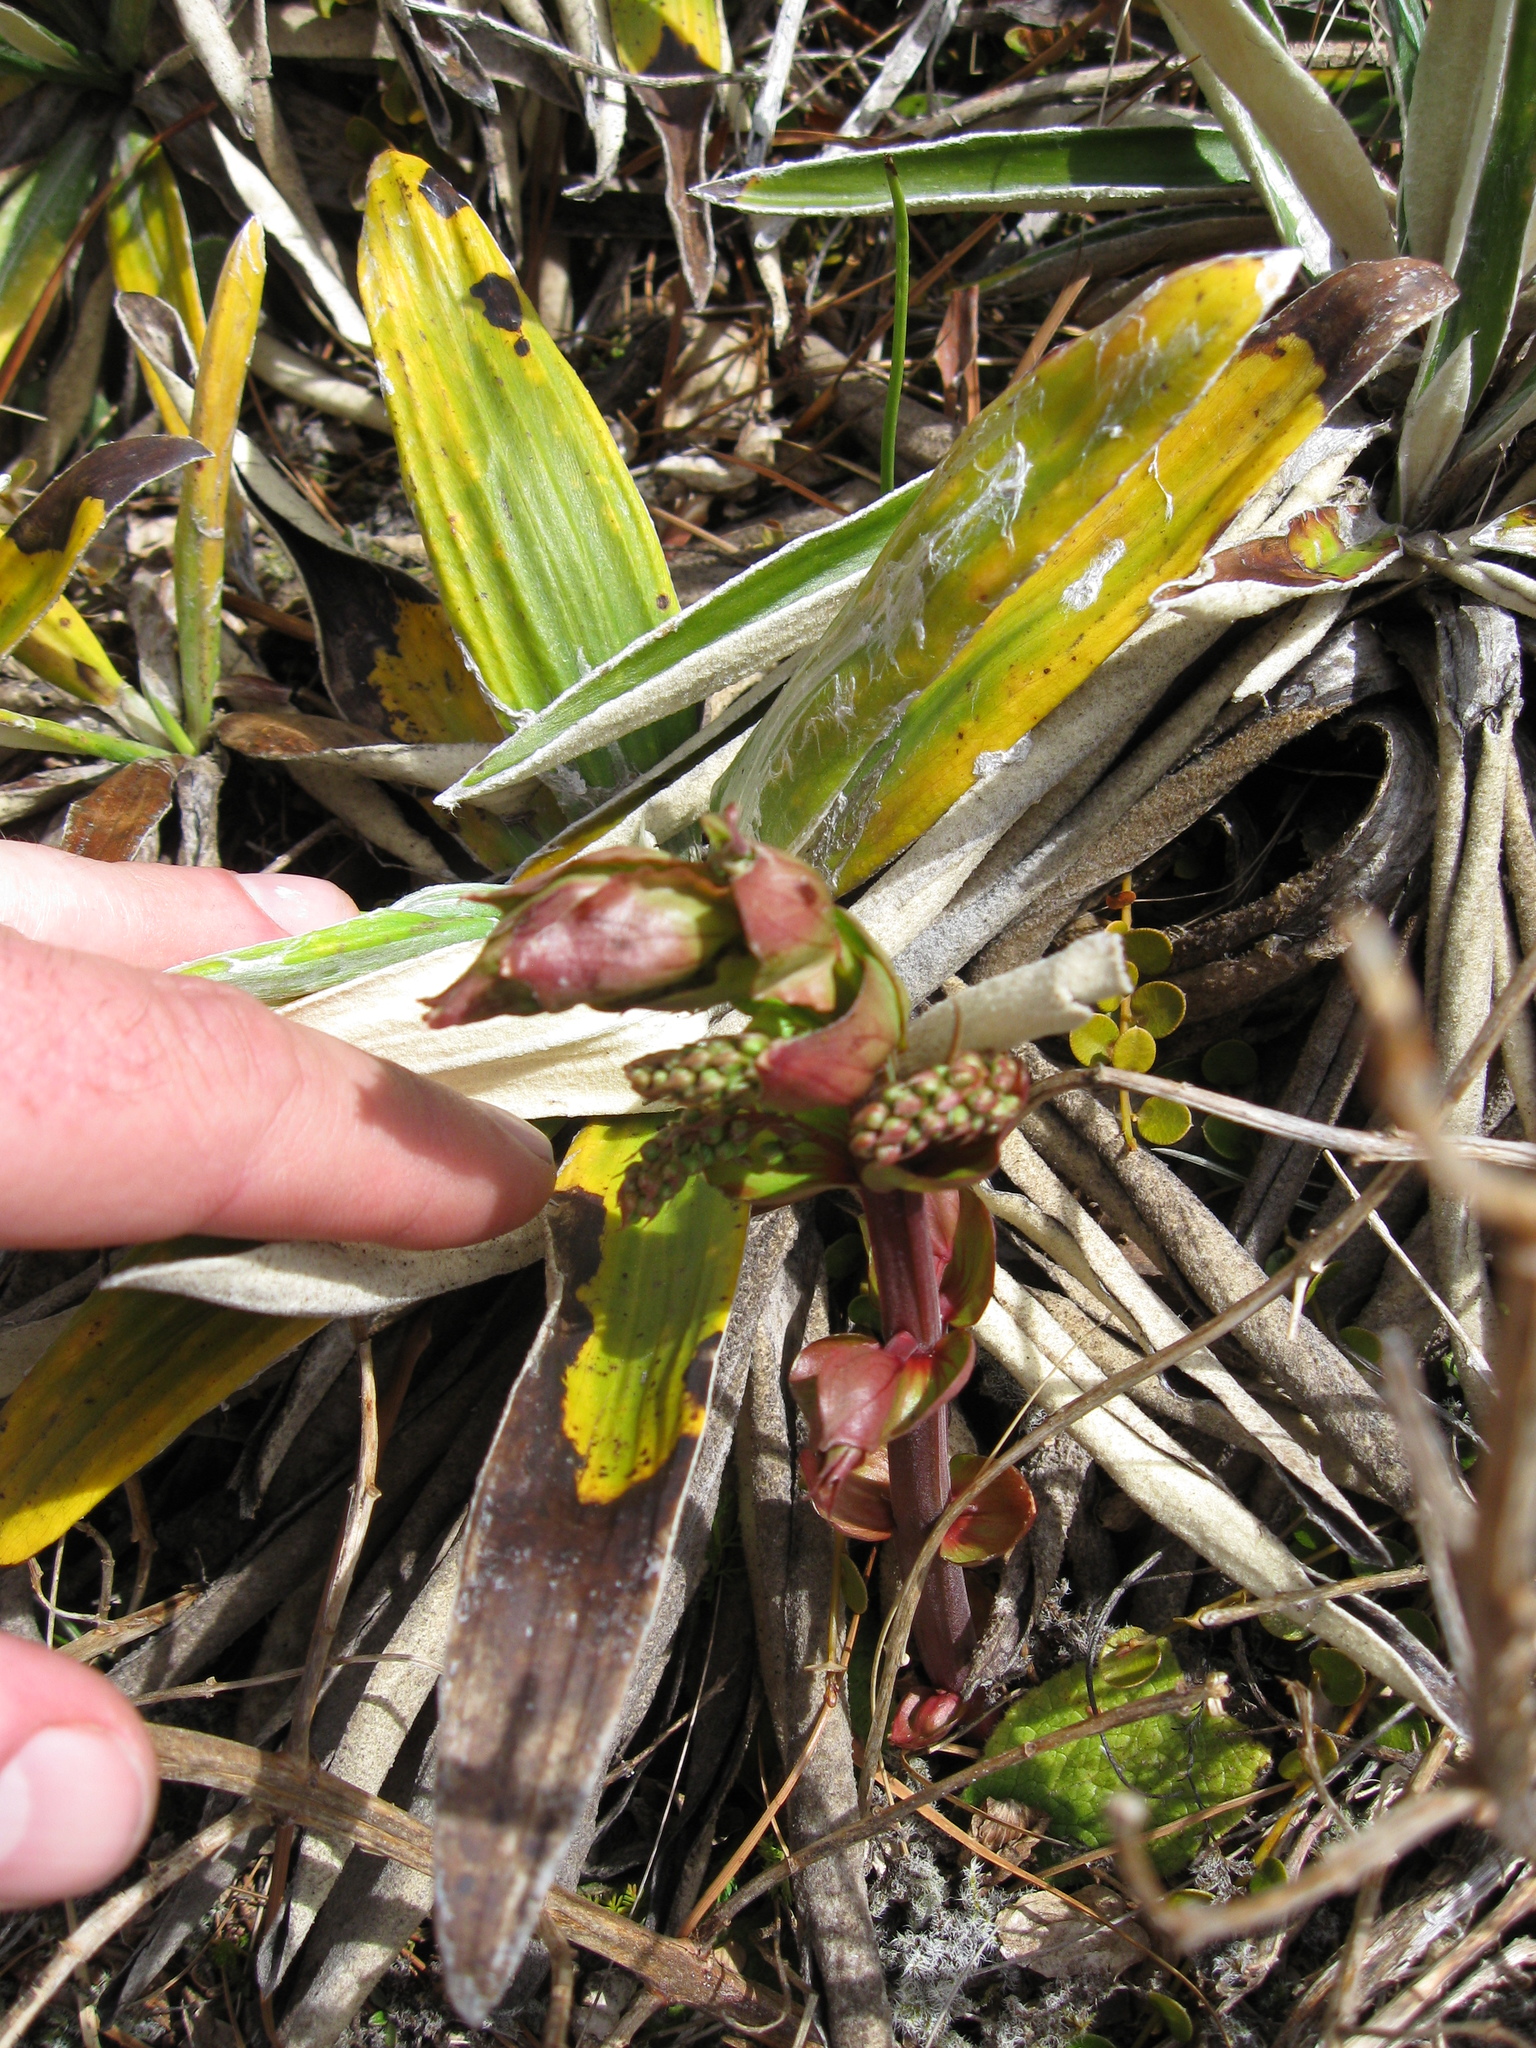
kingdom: Plantae
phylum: Tracheophyta
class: Magnoliopsida
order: Cucurbitales
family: Coriariaceae
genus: Coriaria
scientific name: Coriaria sarmentosa
